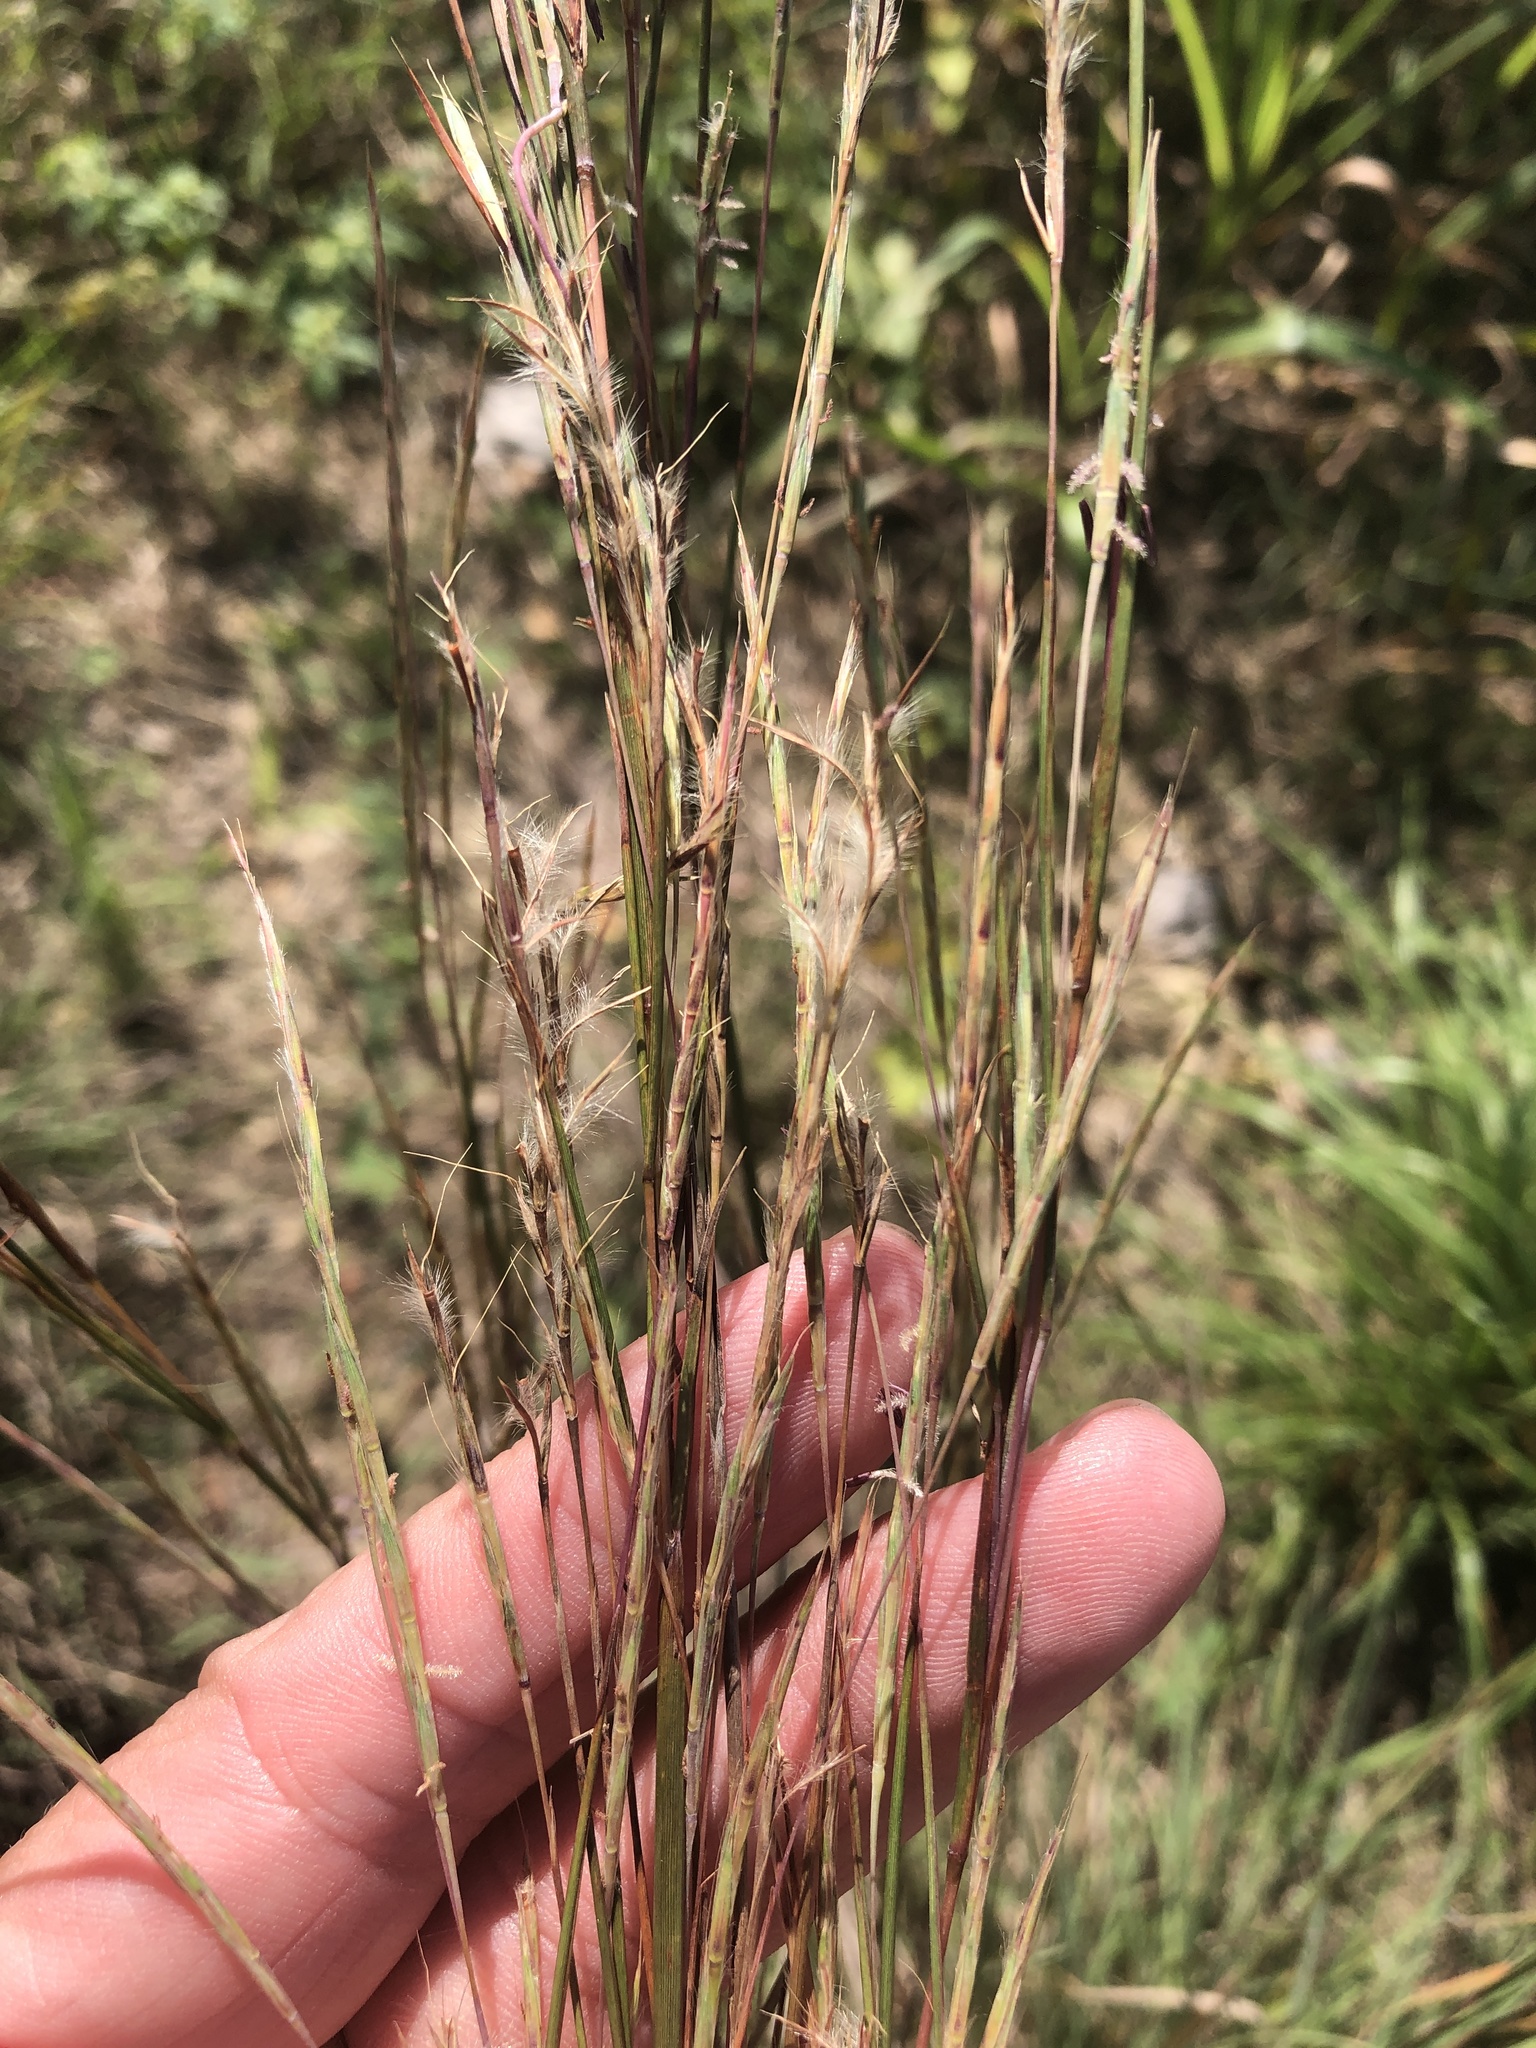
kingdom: Plantae
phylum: Tracheophyta
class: Liliopsida
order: Poales
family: Poaceae
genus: Schizachyrium
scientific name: Schizachyrium scoparium
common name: Little bluestem
